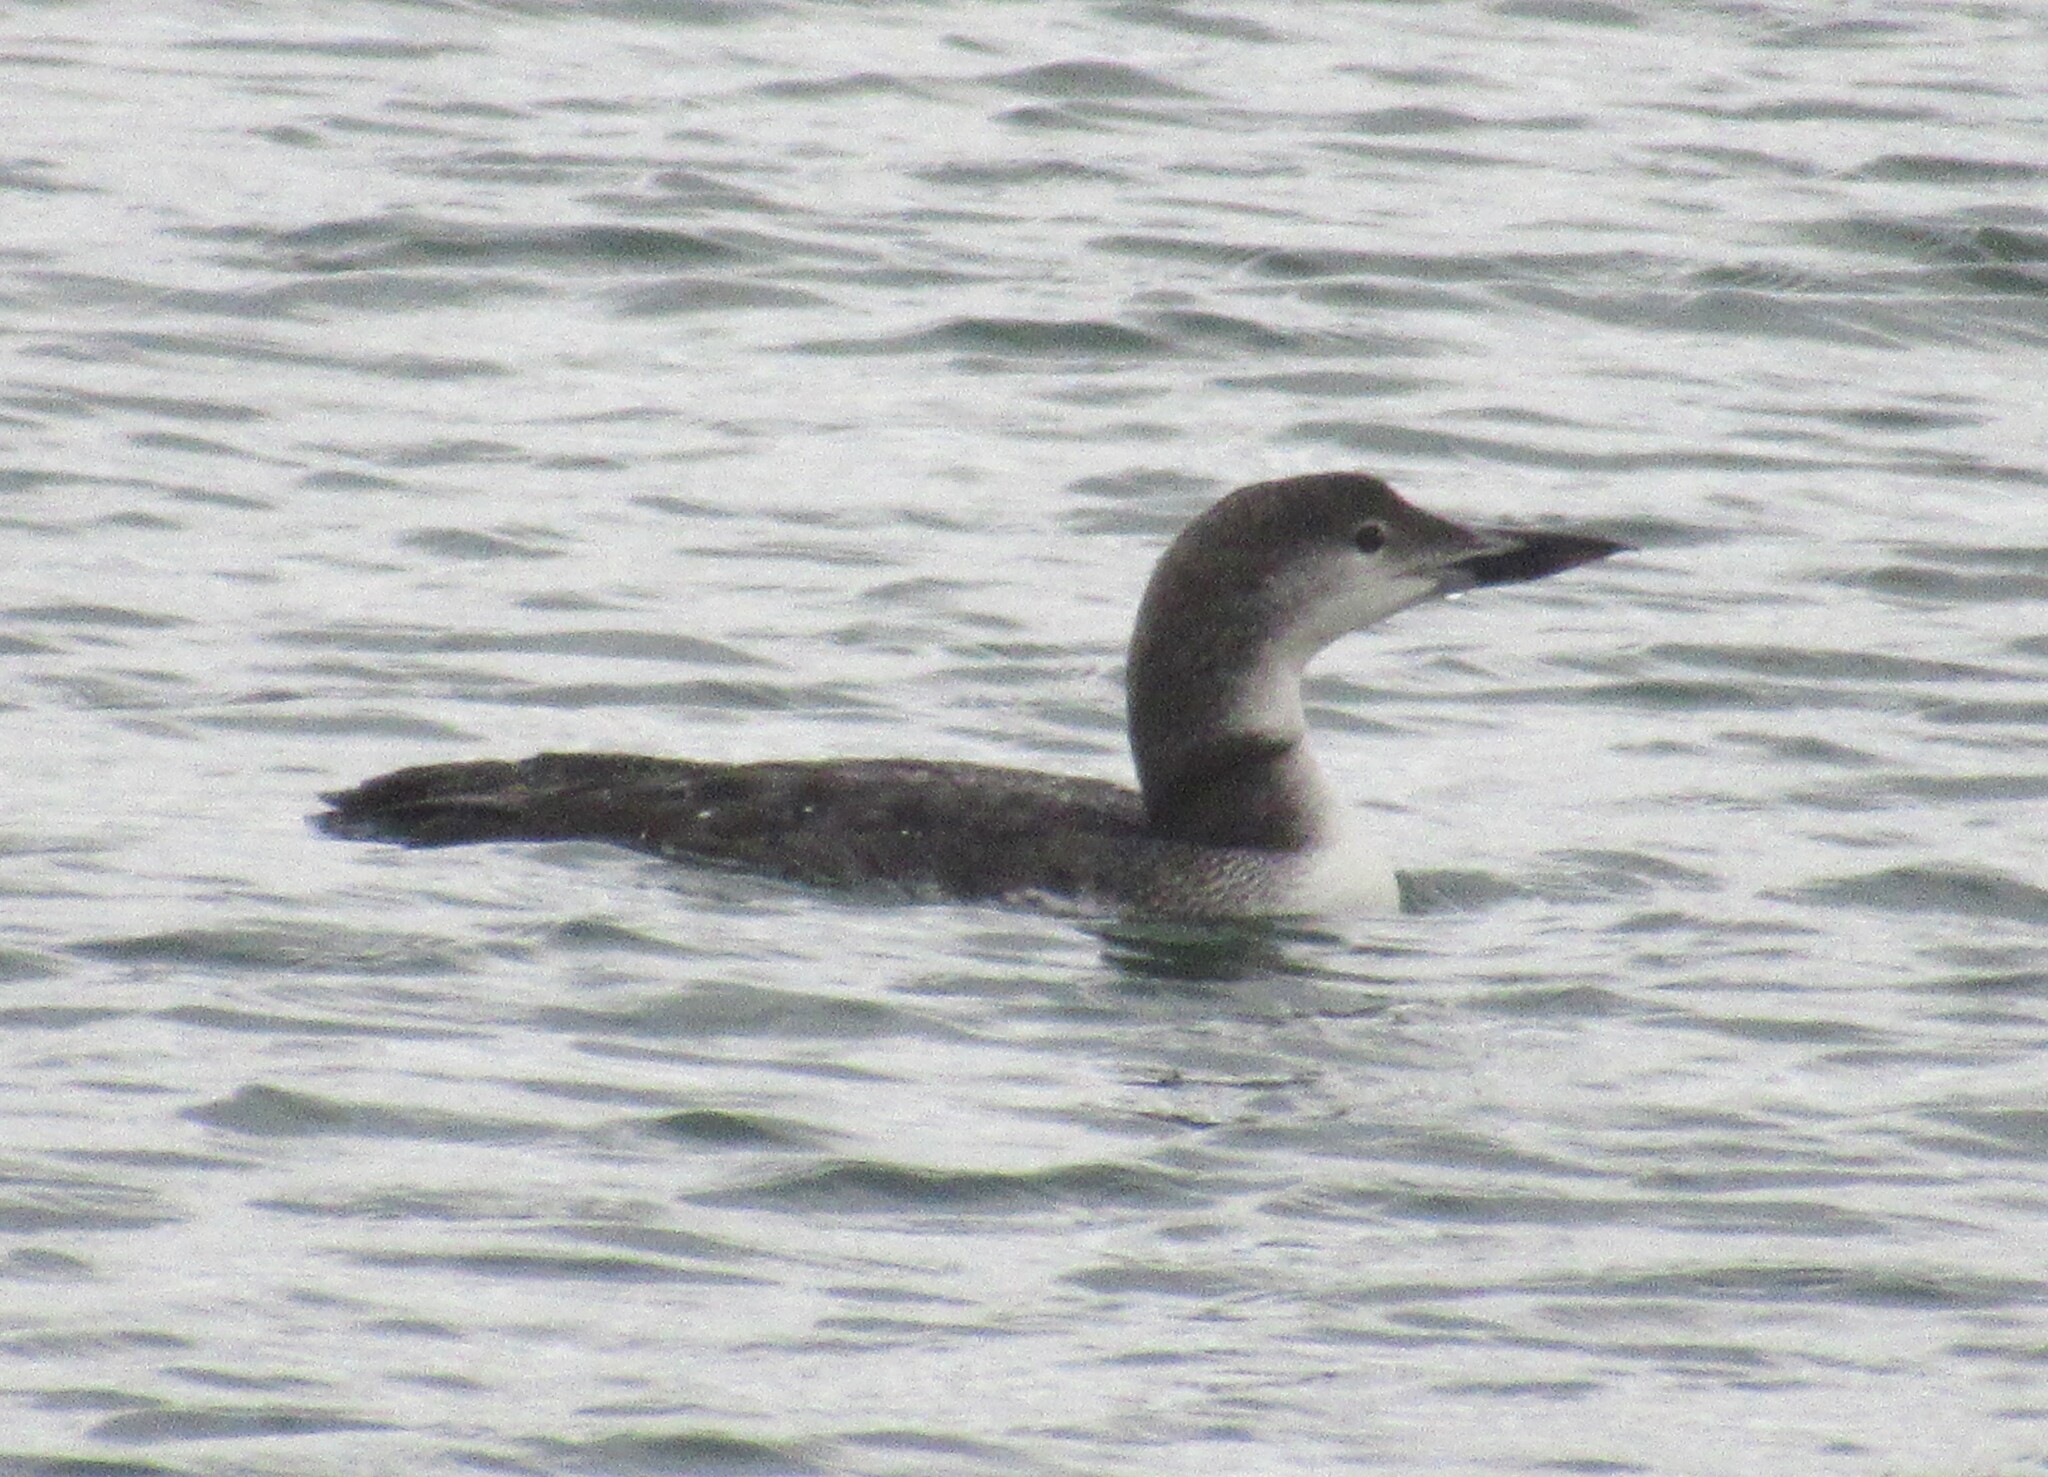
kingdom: Animalia
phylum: Chordata
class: Aves
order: Gaviiformes
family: Gaviidae
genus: Gavia
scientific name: Gavia immer
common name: Common loon
